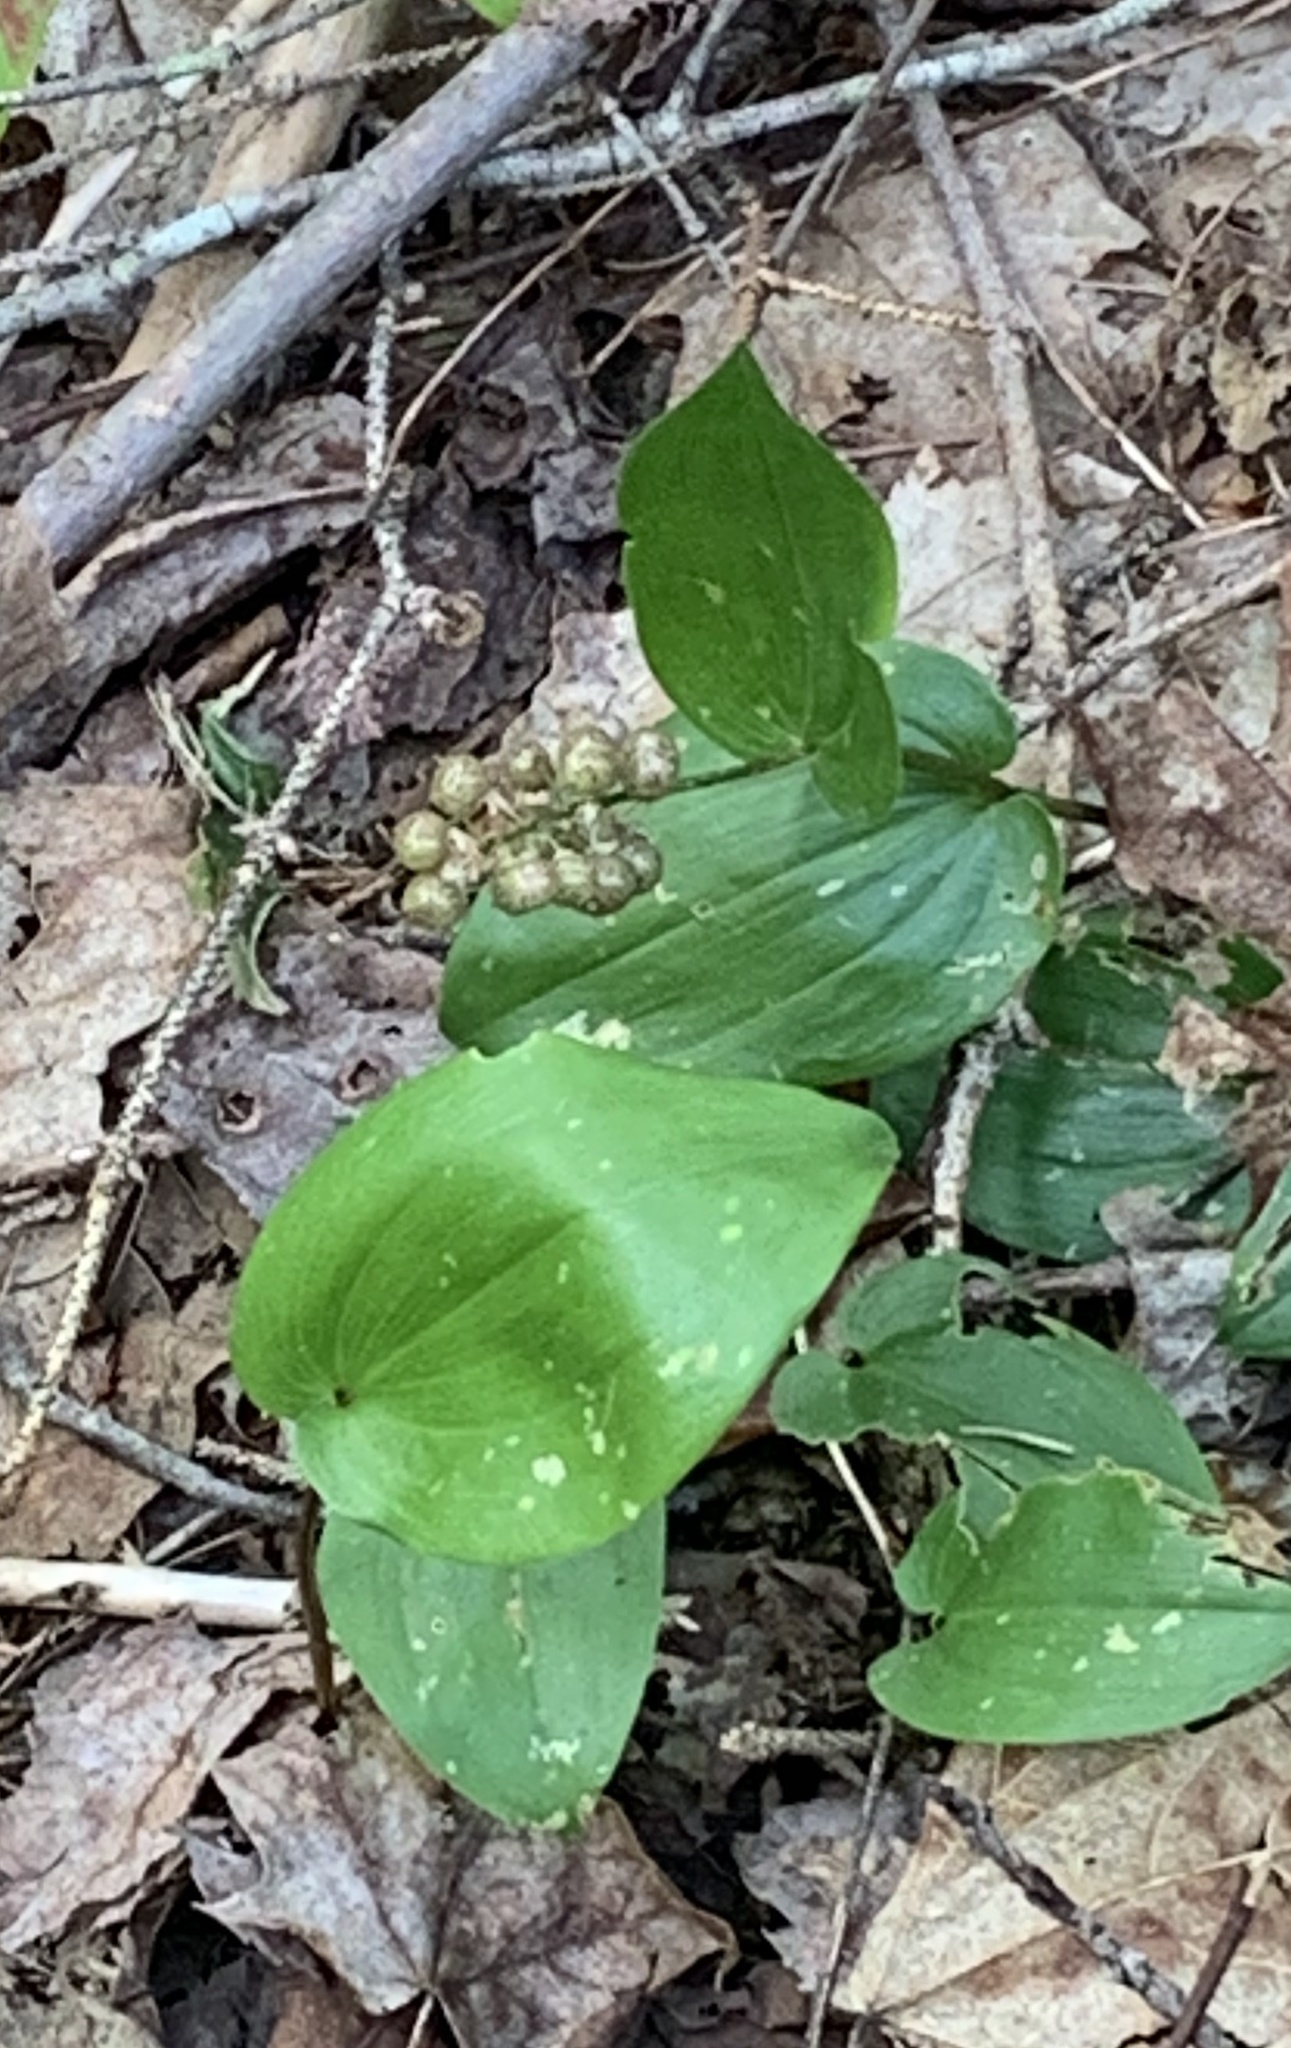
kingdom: Plantae
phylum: Tracheophyta
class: Liliopsida
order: Asparagales
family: Asparagaceae
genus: Maianthemum
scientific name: Maianthemum canadense
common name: False lily-of-the-valley
